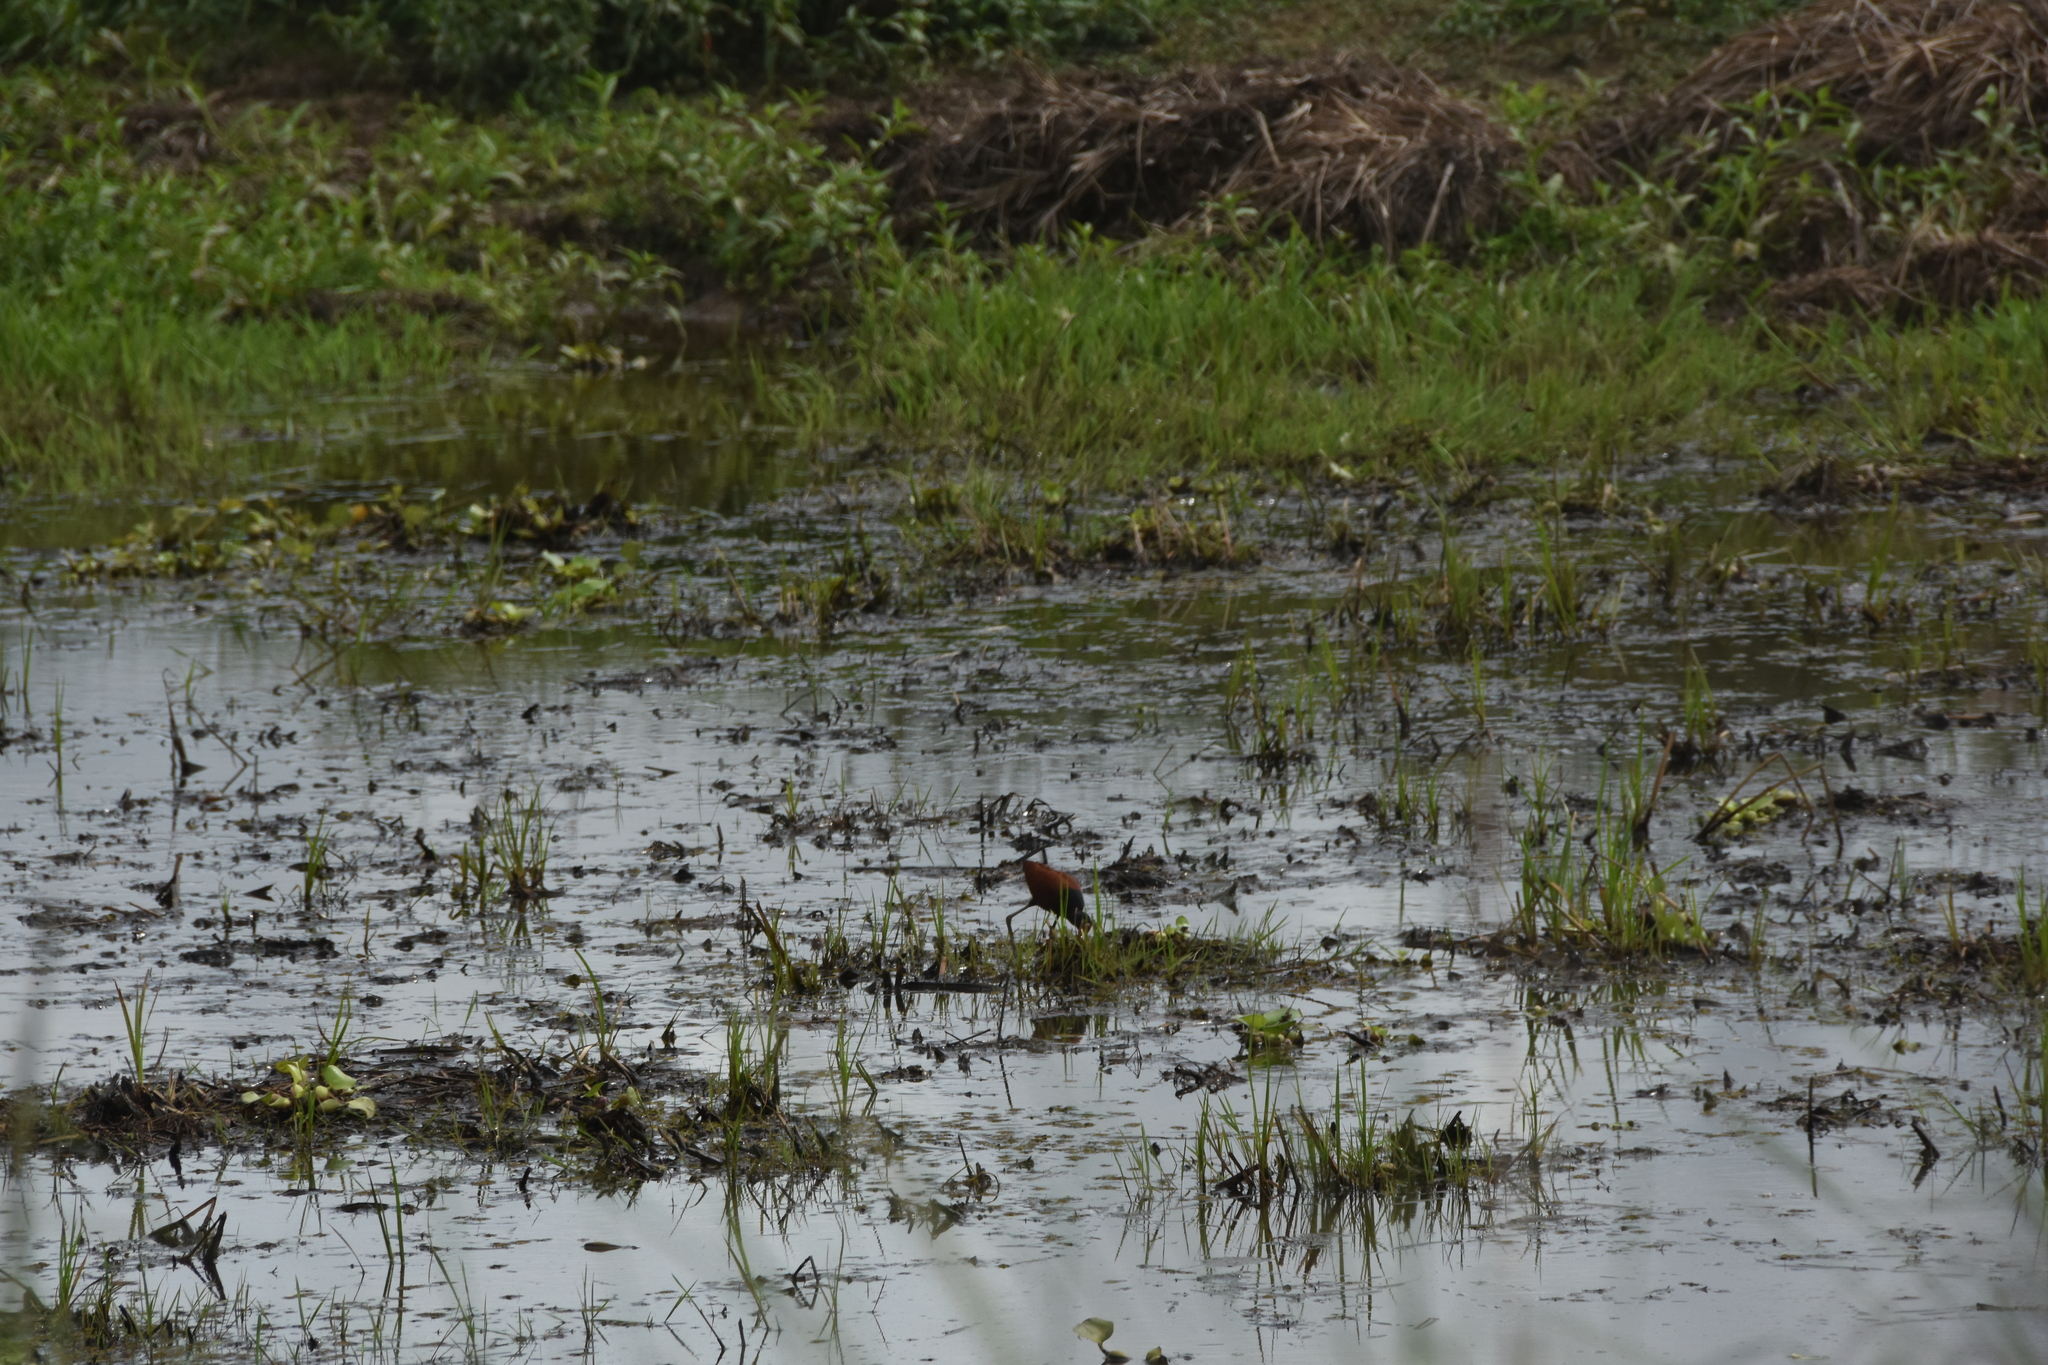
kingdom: Animalia
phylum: Chordata
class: Aves
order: Charadriiformes
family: Jacanidae
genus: Jacana
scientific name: Jacana jacana
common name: Wattled jacana
